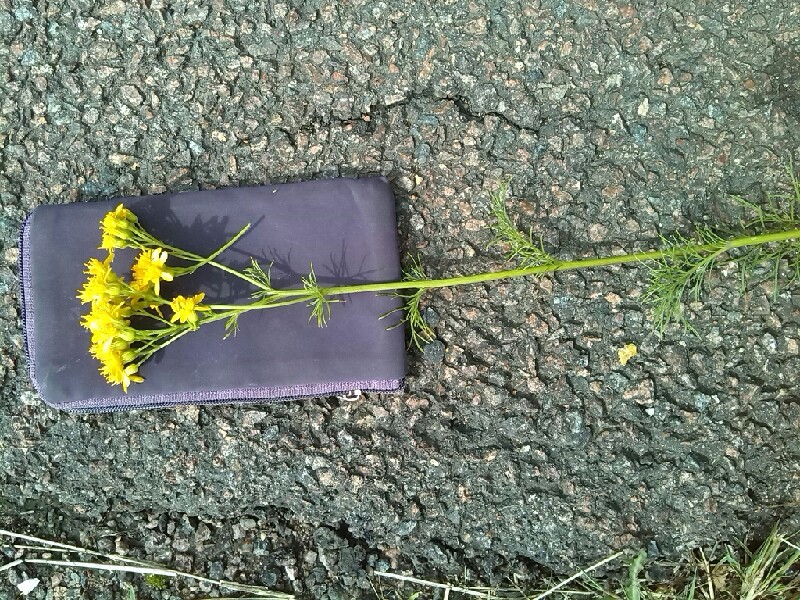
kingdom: Plantae
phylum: Tracheophyta
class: Magnoliopsida
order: Asterales
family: Asteraceae
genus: Jacobaea
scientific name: Jacobaea adonidifolia
